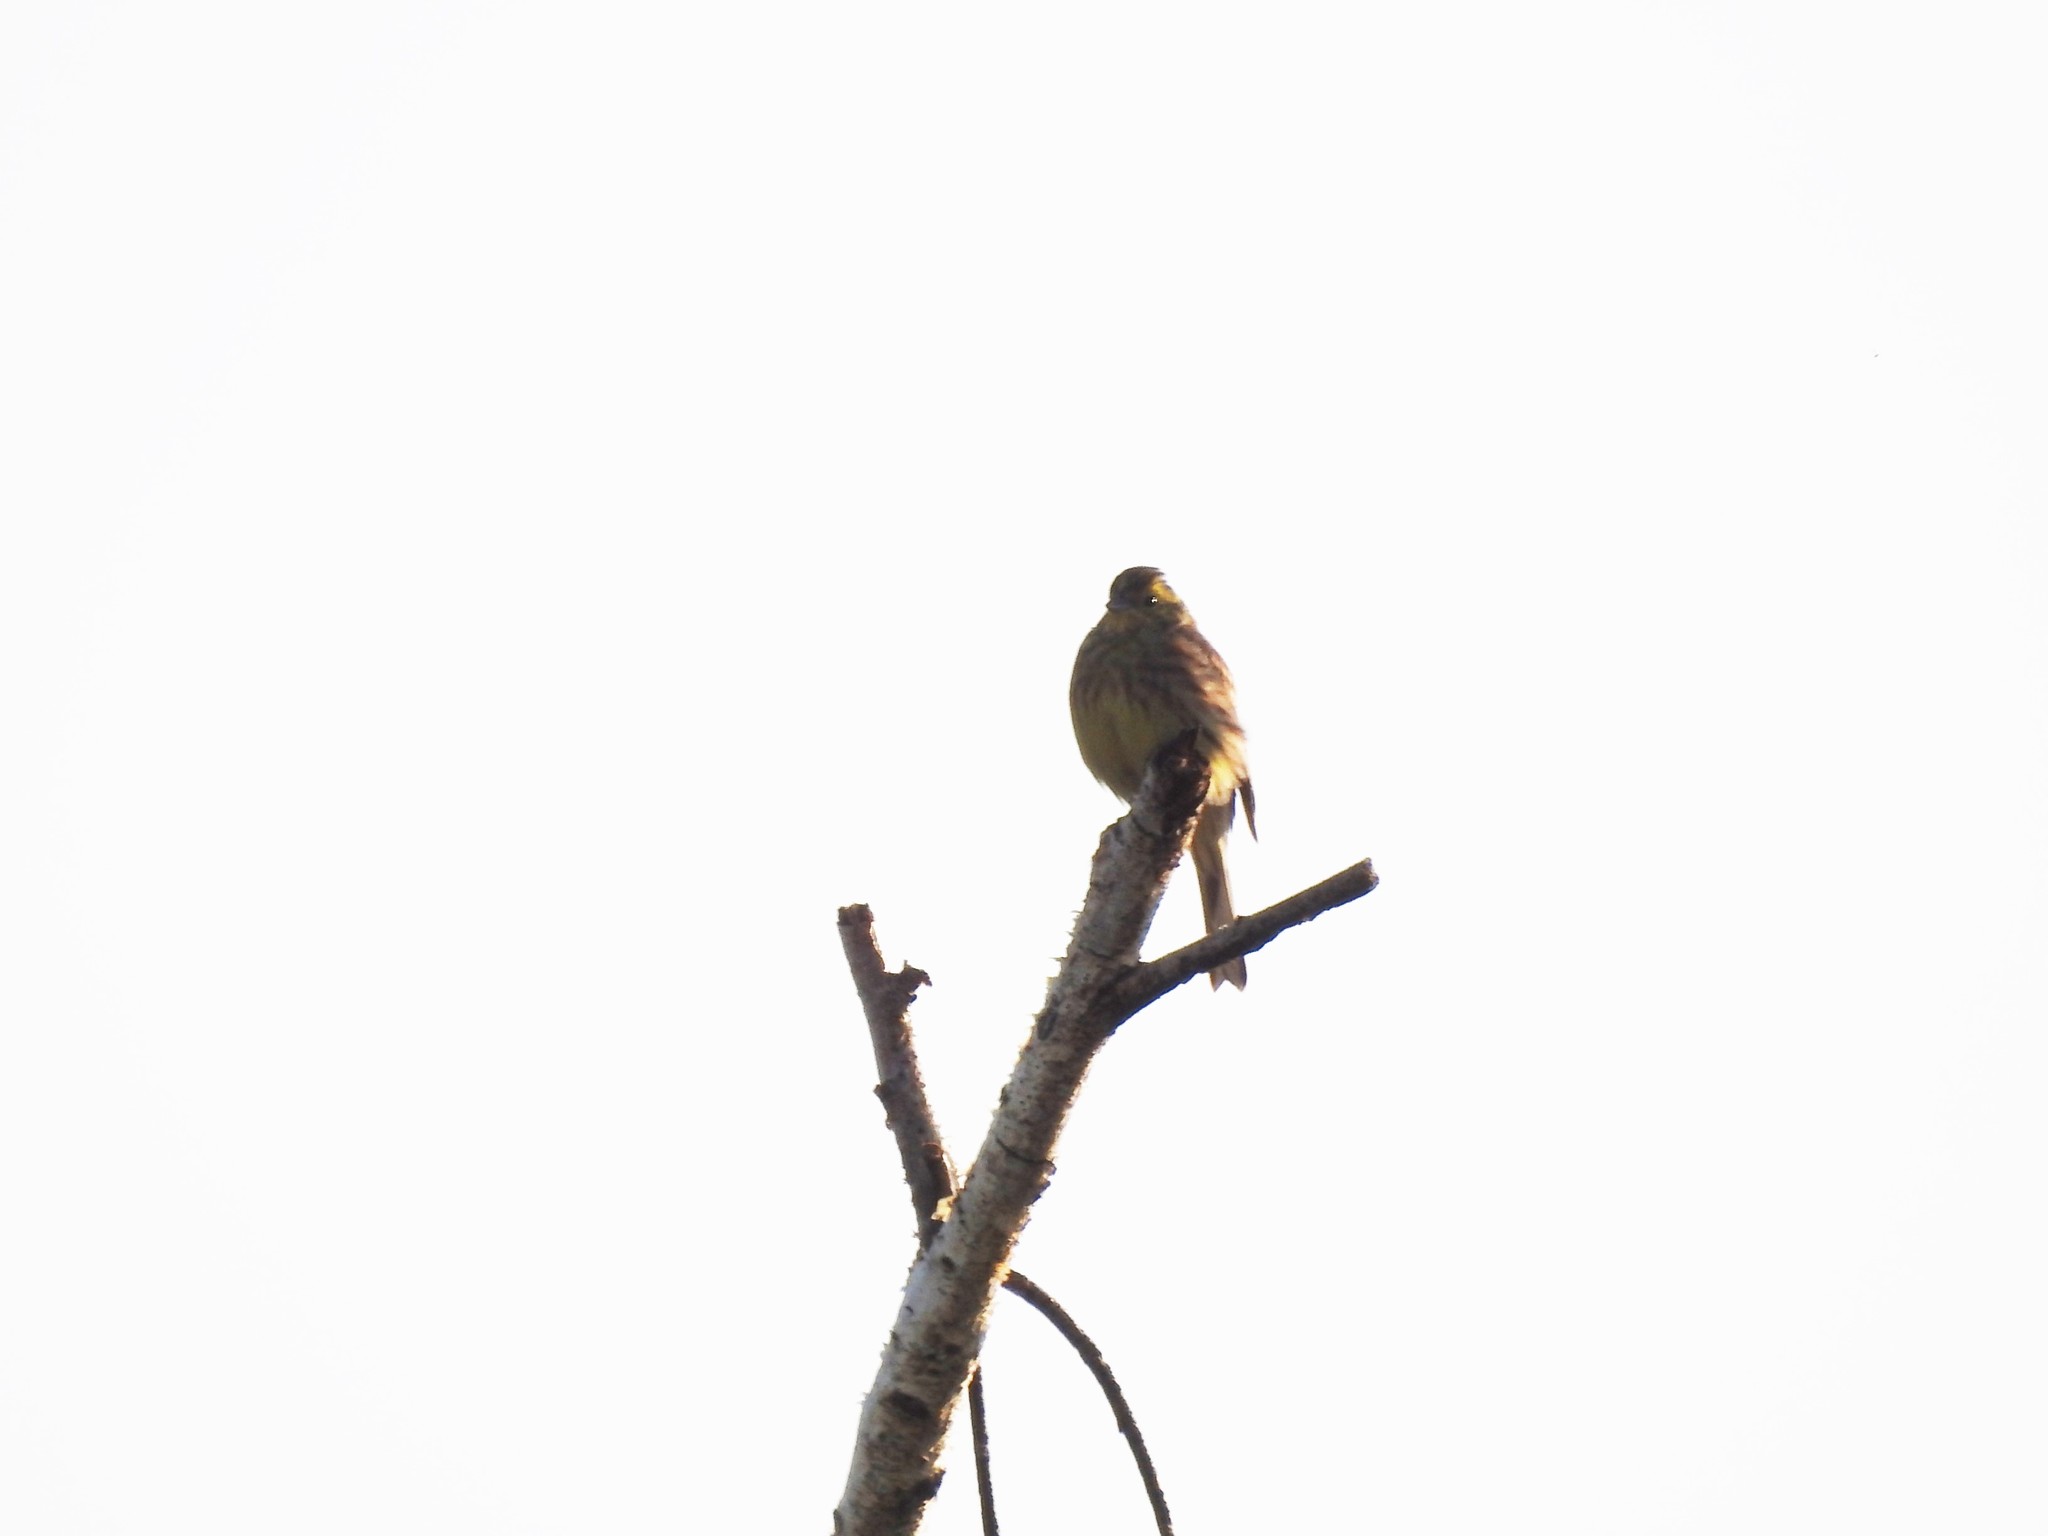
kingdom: Animalia
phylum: Chordata
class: Aves
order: Passeriformes
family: Emberizidae
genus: Emberiza
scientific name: Emberiza citrinella
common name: Yellowhammer
